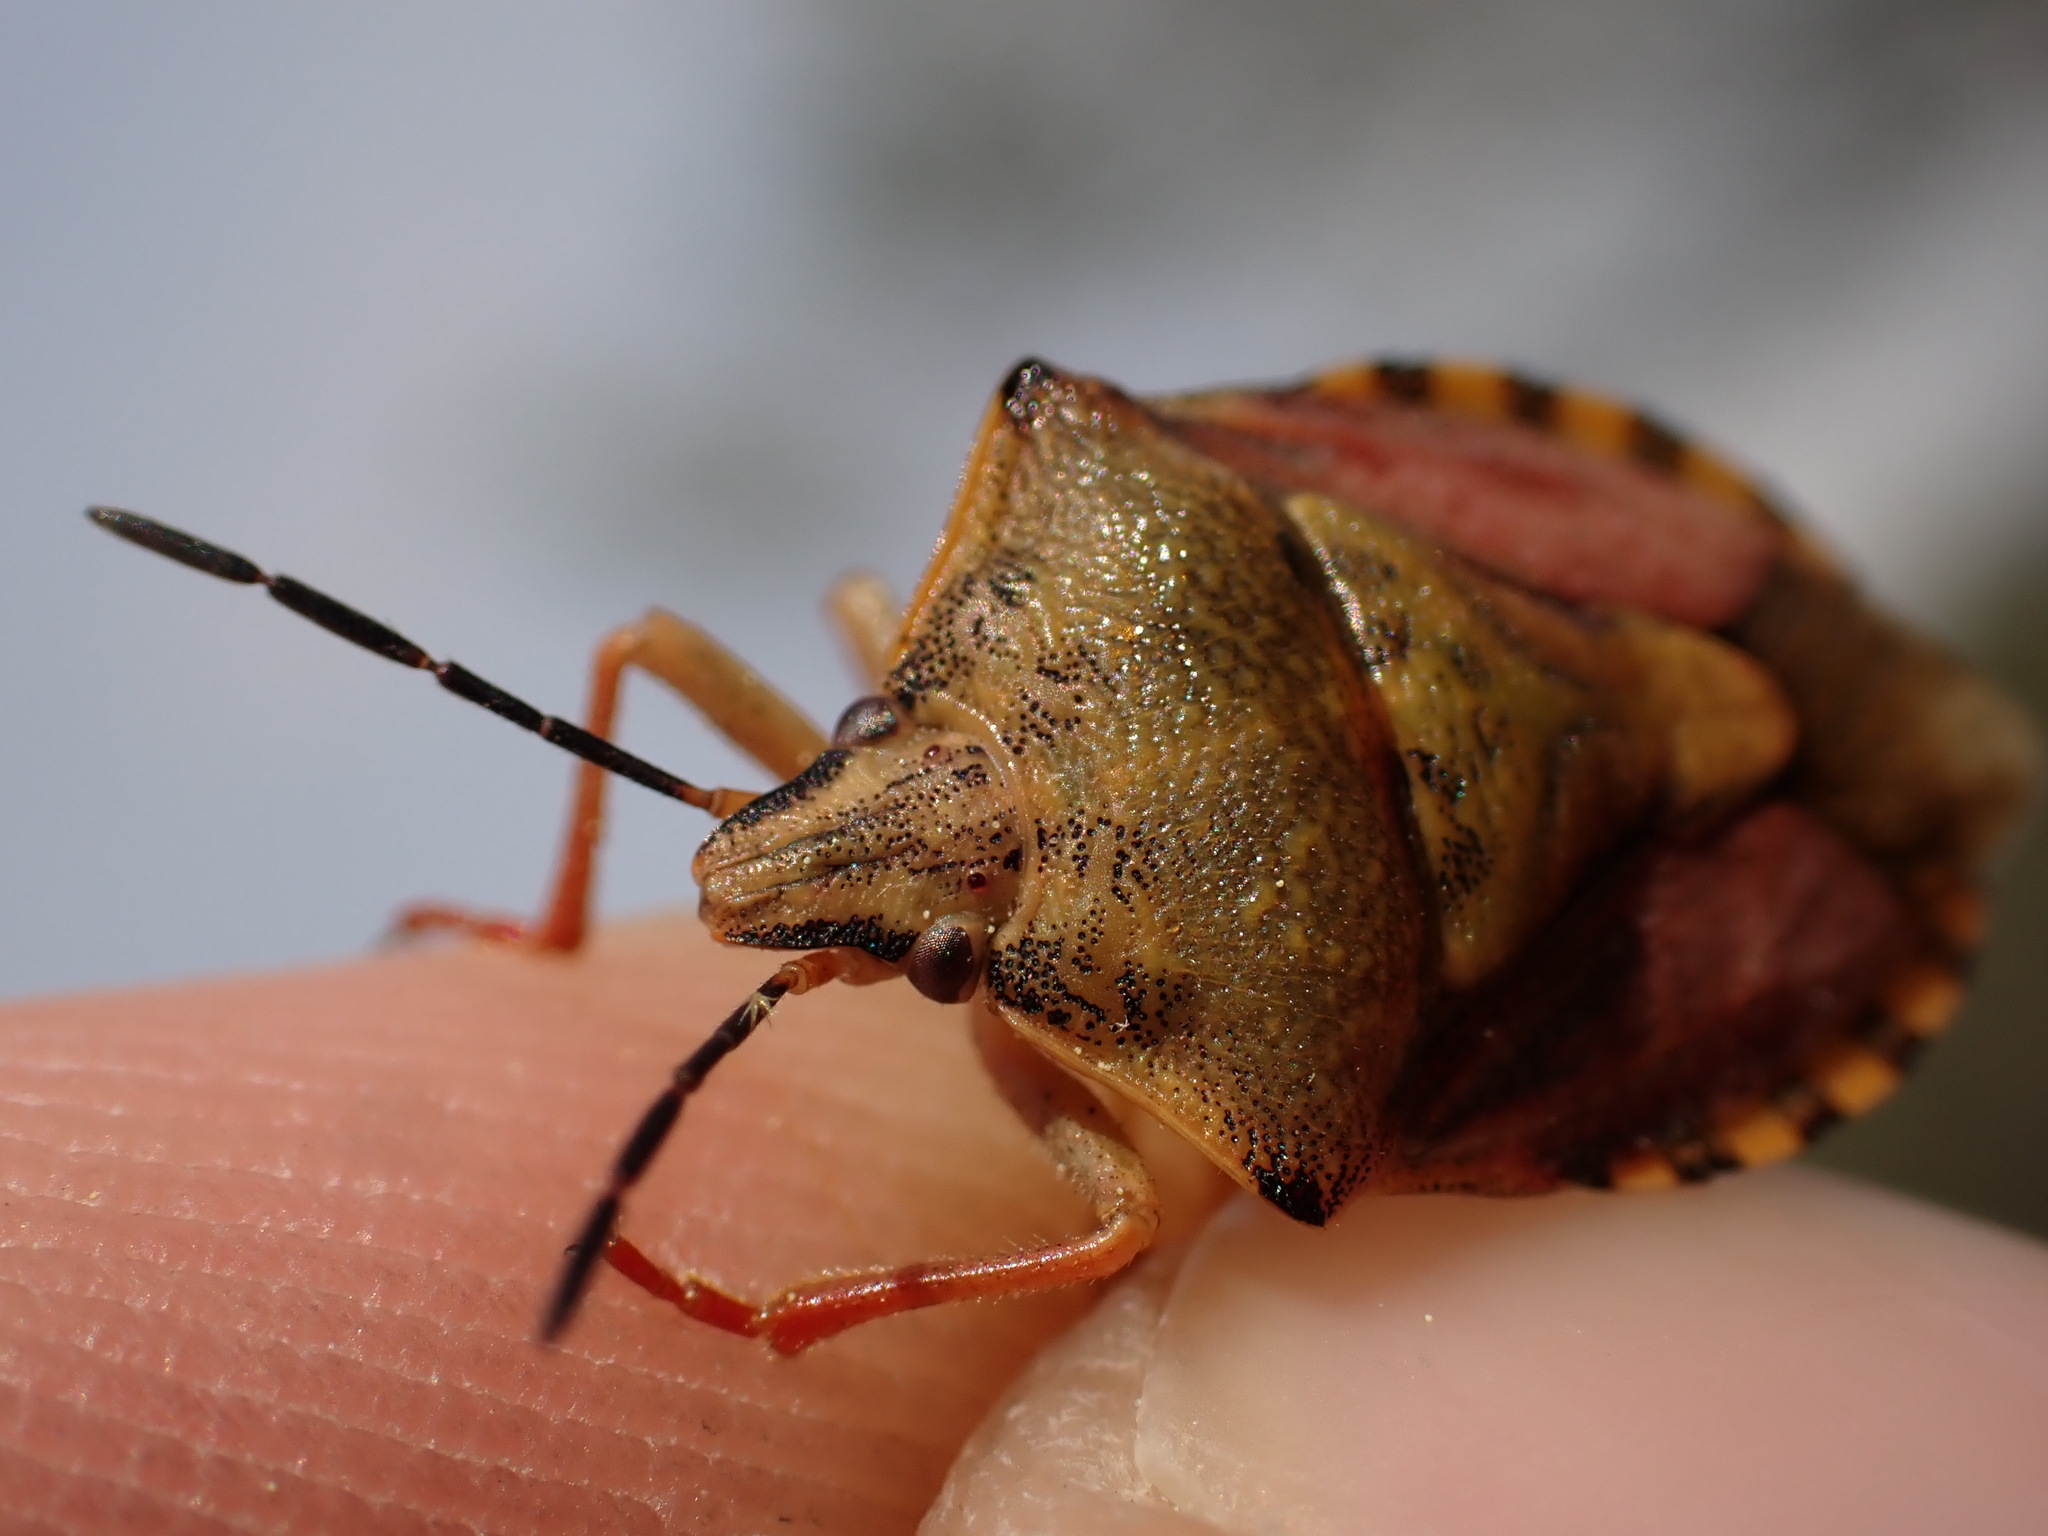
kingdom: Animalia
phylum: Arthropoda
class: Insecta
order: Hemiptera
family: Pentatomidae
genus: Carpocoris
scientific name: Carpocoris purpureipennis
